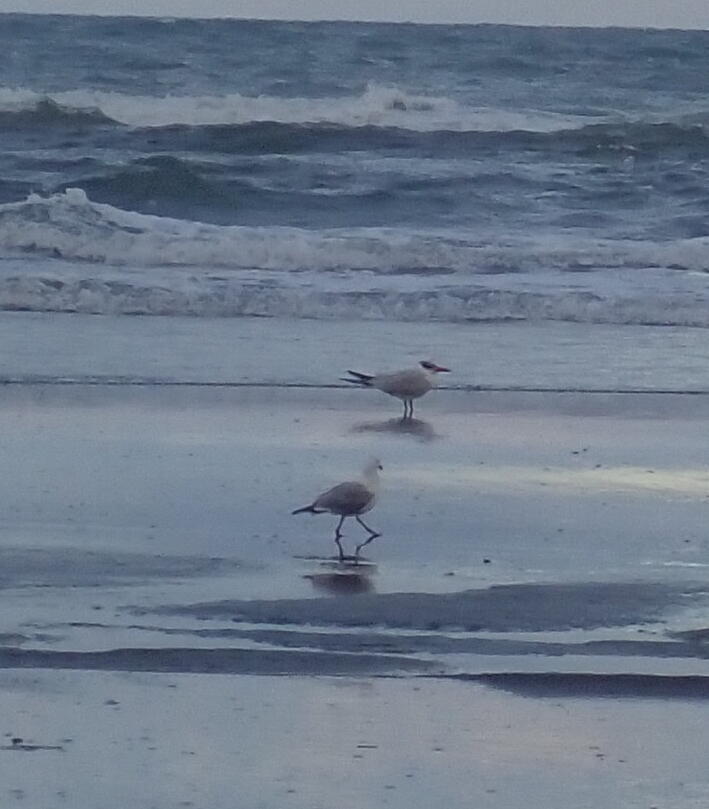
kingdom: Animalia
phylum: Chordata
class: Aves
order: Charadriiformes
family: Laridae
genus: Hydroprogne
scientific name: Hydroprogne caspia
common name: Caspian tern
